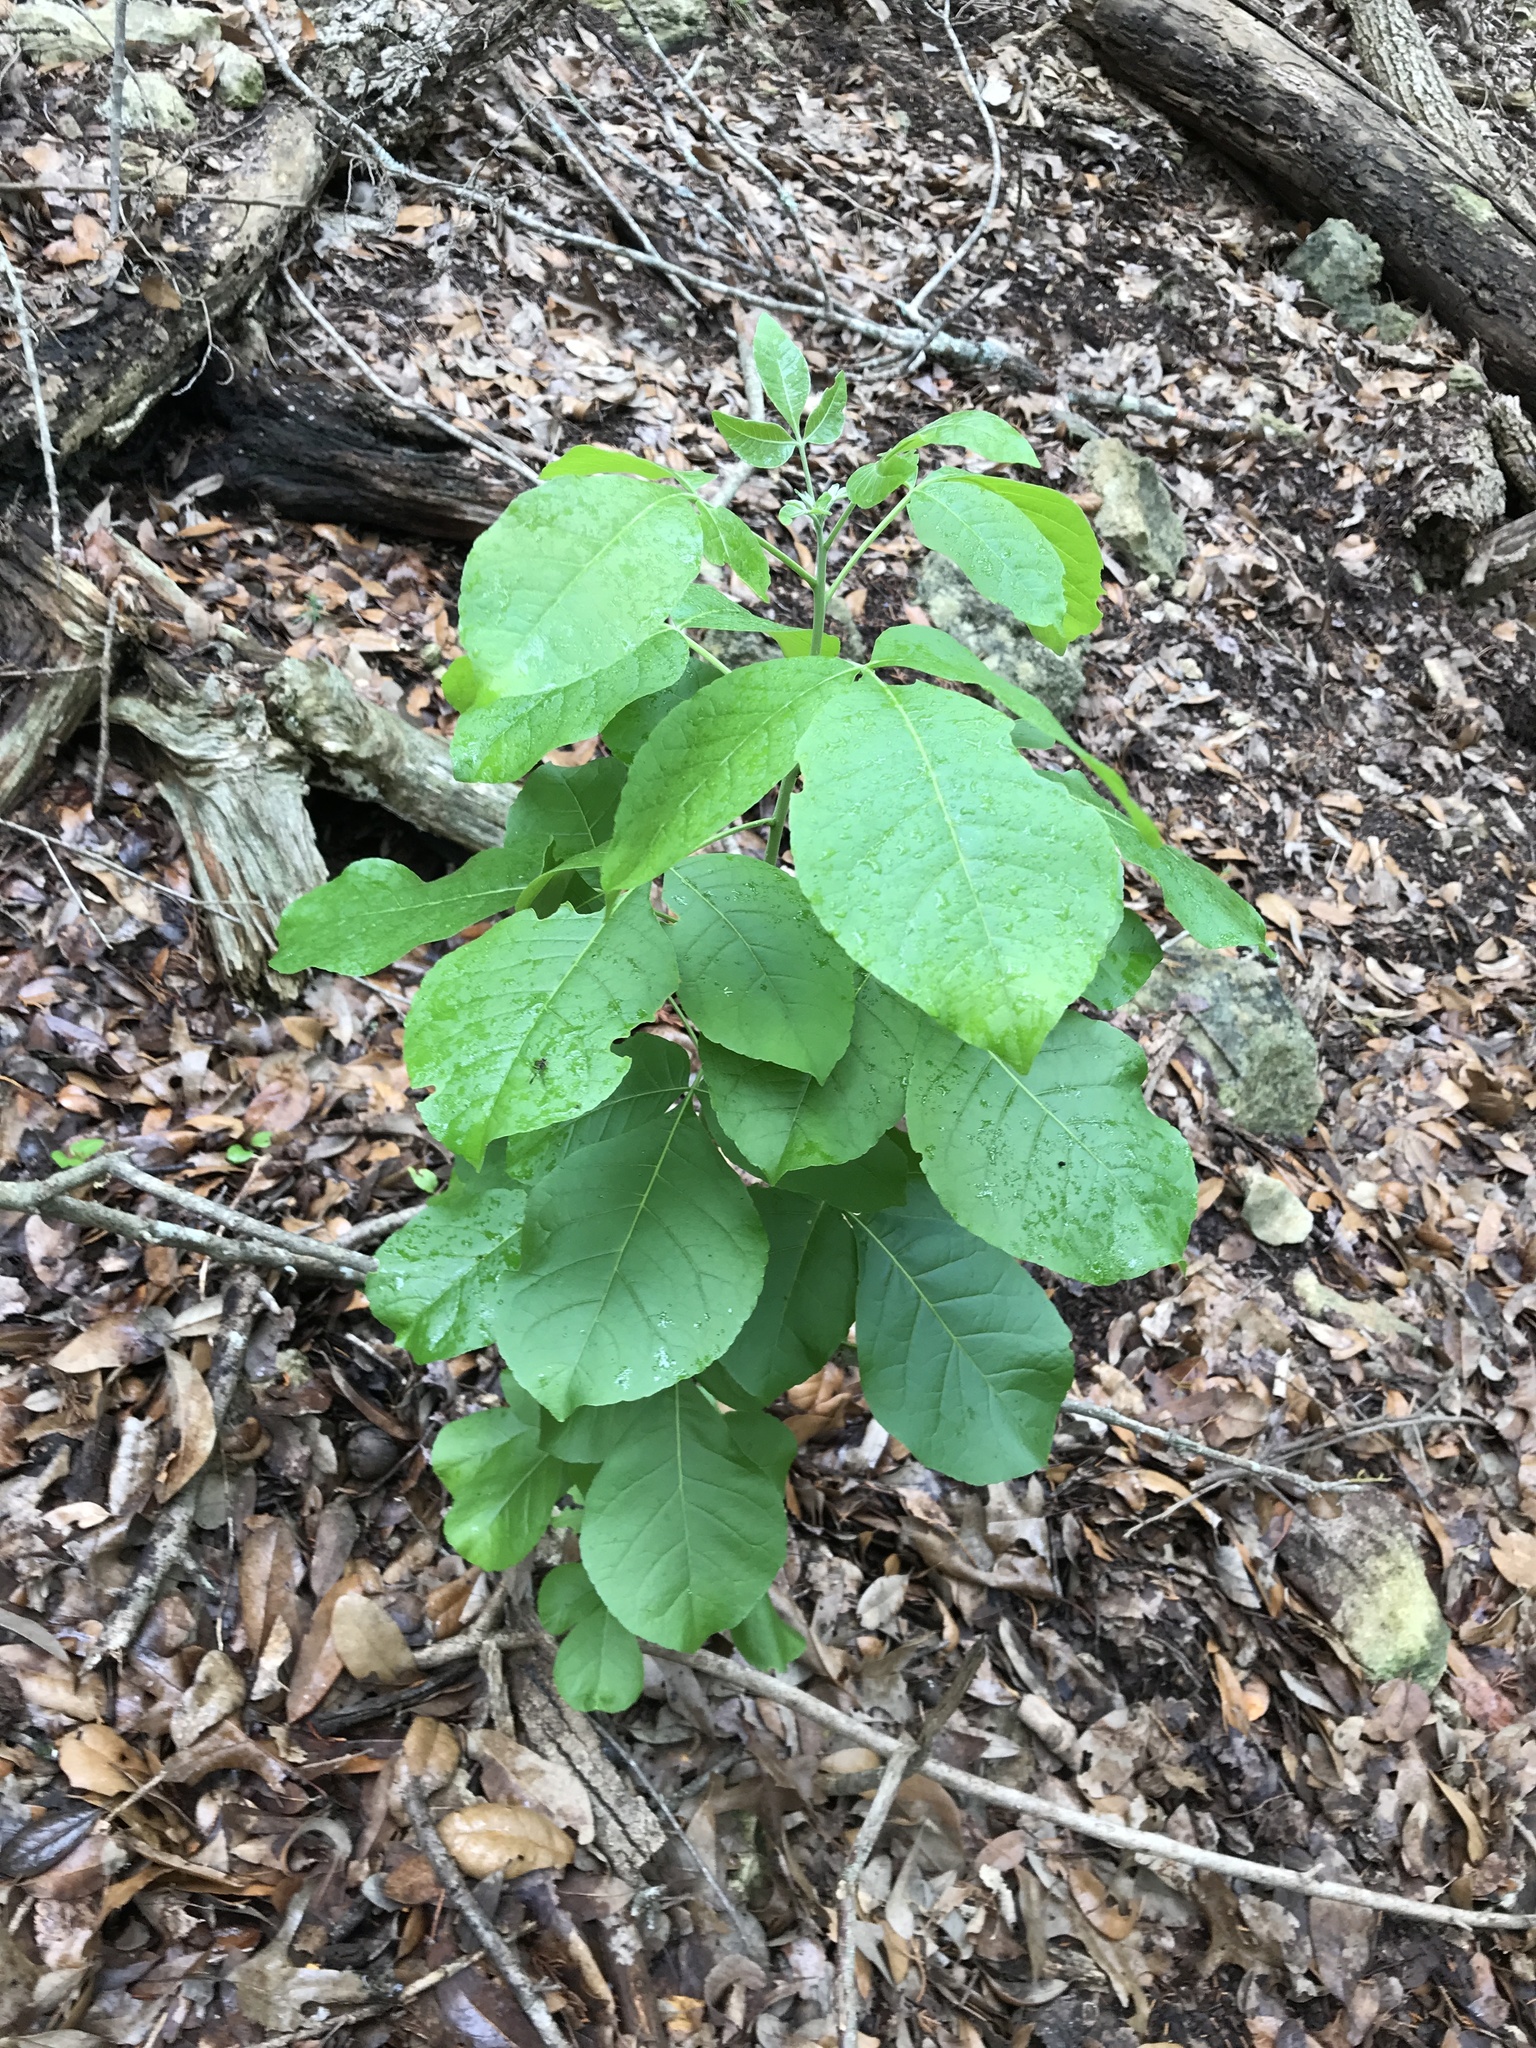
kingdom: Plantae
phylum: Tracheophyta
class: Magnoliopsida
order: Sapindales
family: Rutaceae
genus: Ptelea
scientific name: Ptelea trifoliata
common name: Common hop-tree
